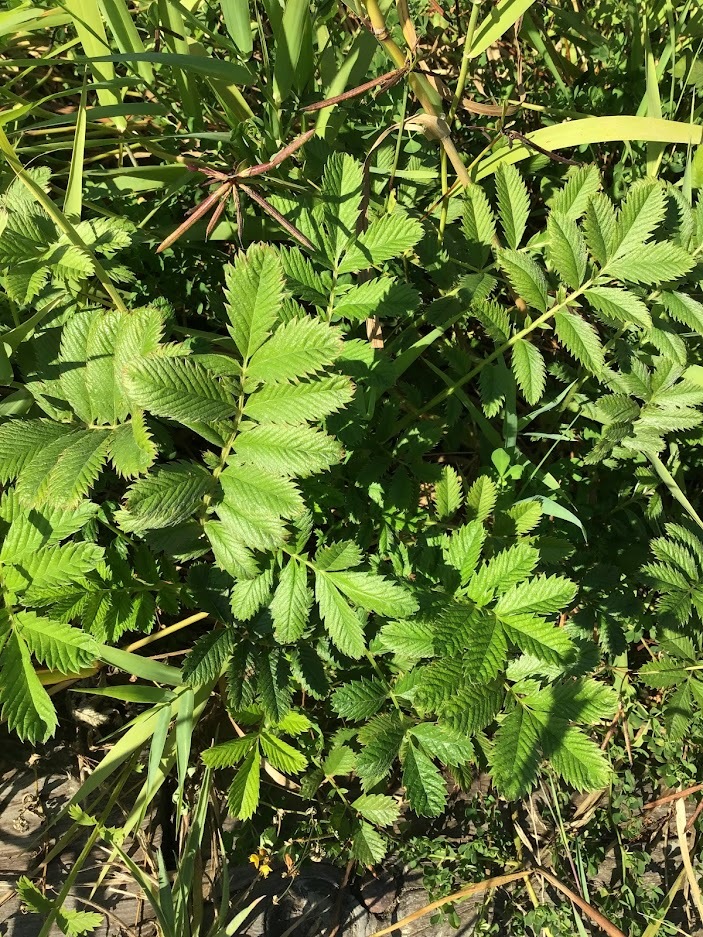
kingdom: Plantae
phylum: Tracheophyta
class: Magnoliopsida
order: Rosales
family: Rosaceae
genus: Argentina
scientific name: Argentina anserina
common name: Common silverweed
